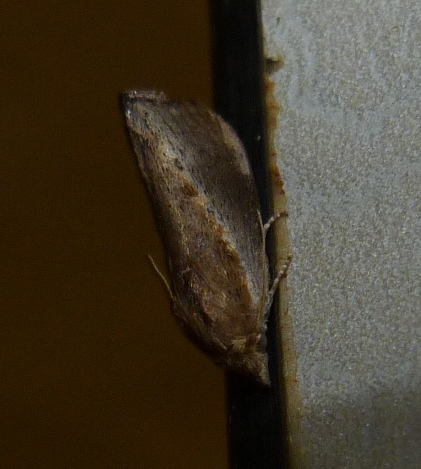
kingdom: Animalia
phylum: Arthropoda
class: Insecta
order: Lepidoptera
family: Pyralidae
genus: Galleria
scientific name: Galleria mellonella
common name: Greater wax moth
